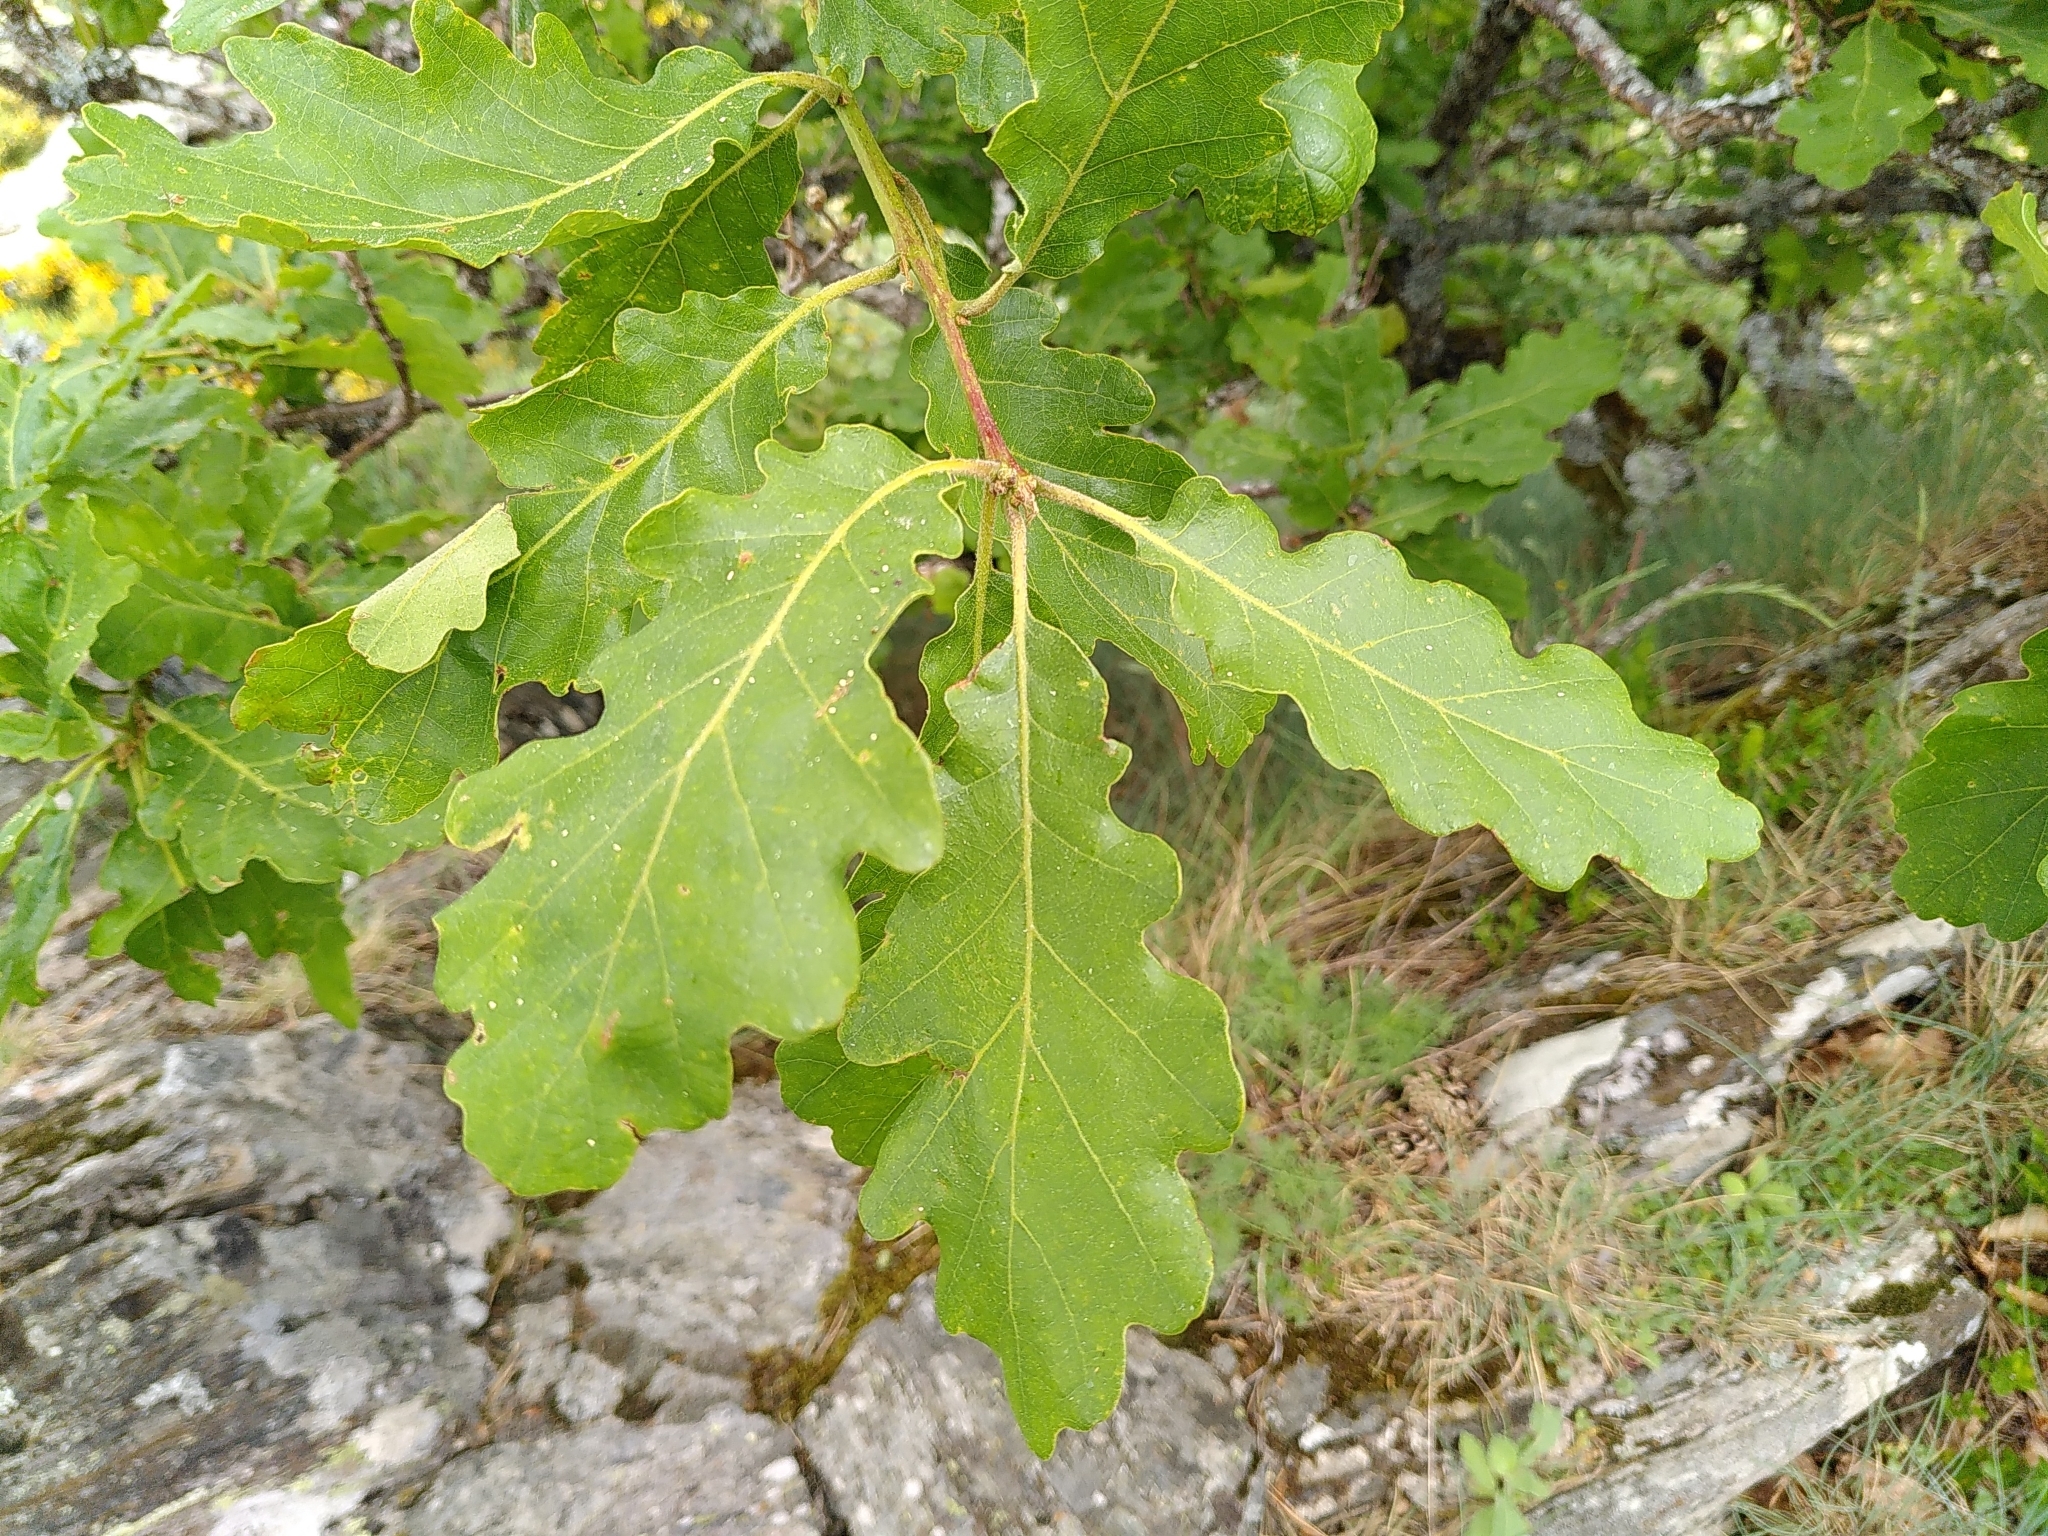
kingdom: Plantae
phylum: Tracheophyta
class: Magnoliopsida
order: Fagales
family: Fagaceae
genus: Quercus
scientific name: Quercus petraea
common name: Sessile oak
